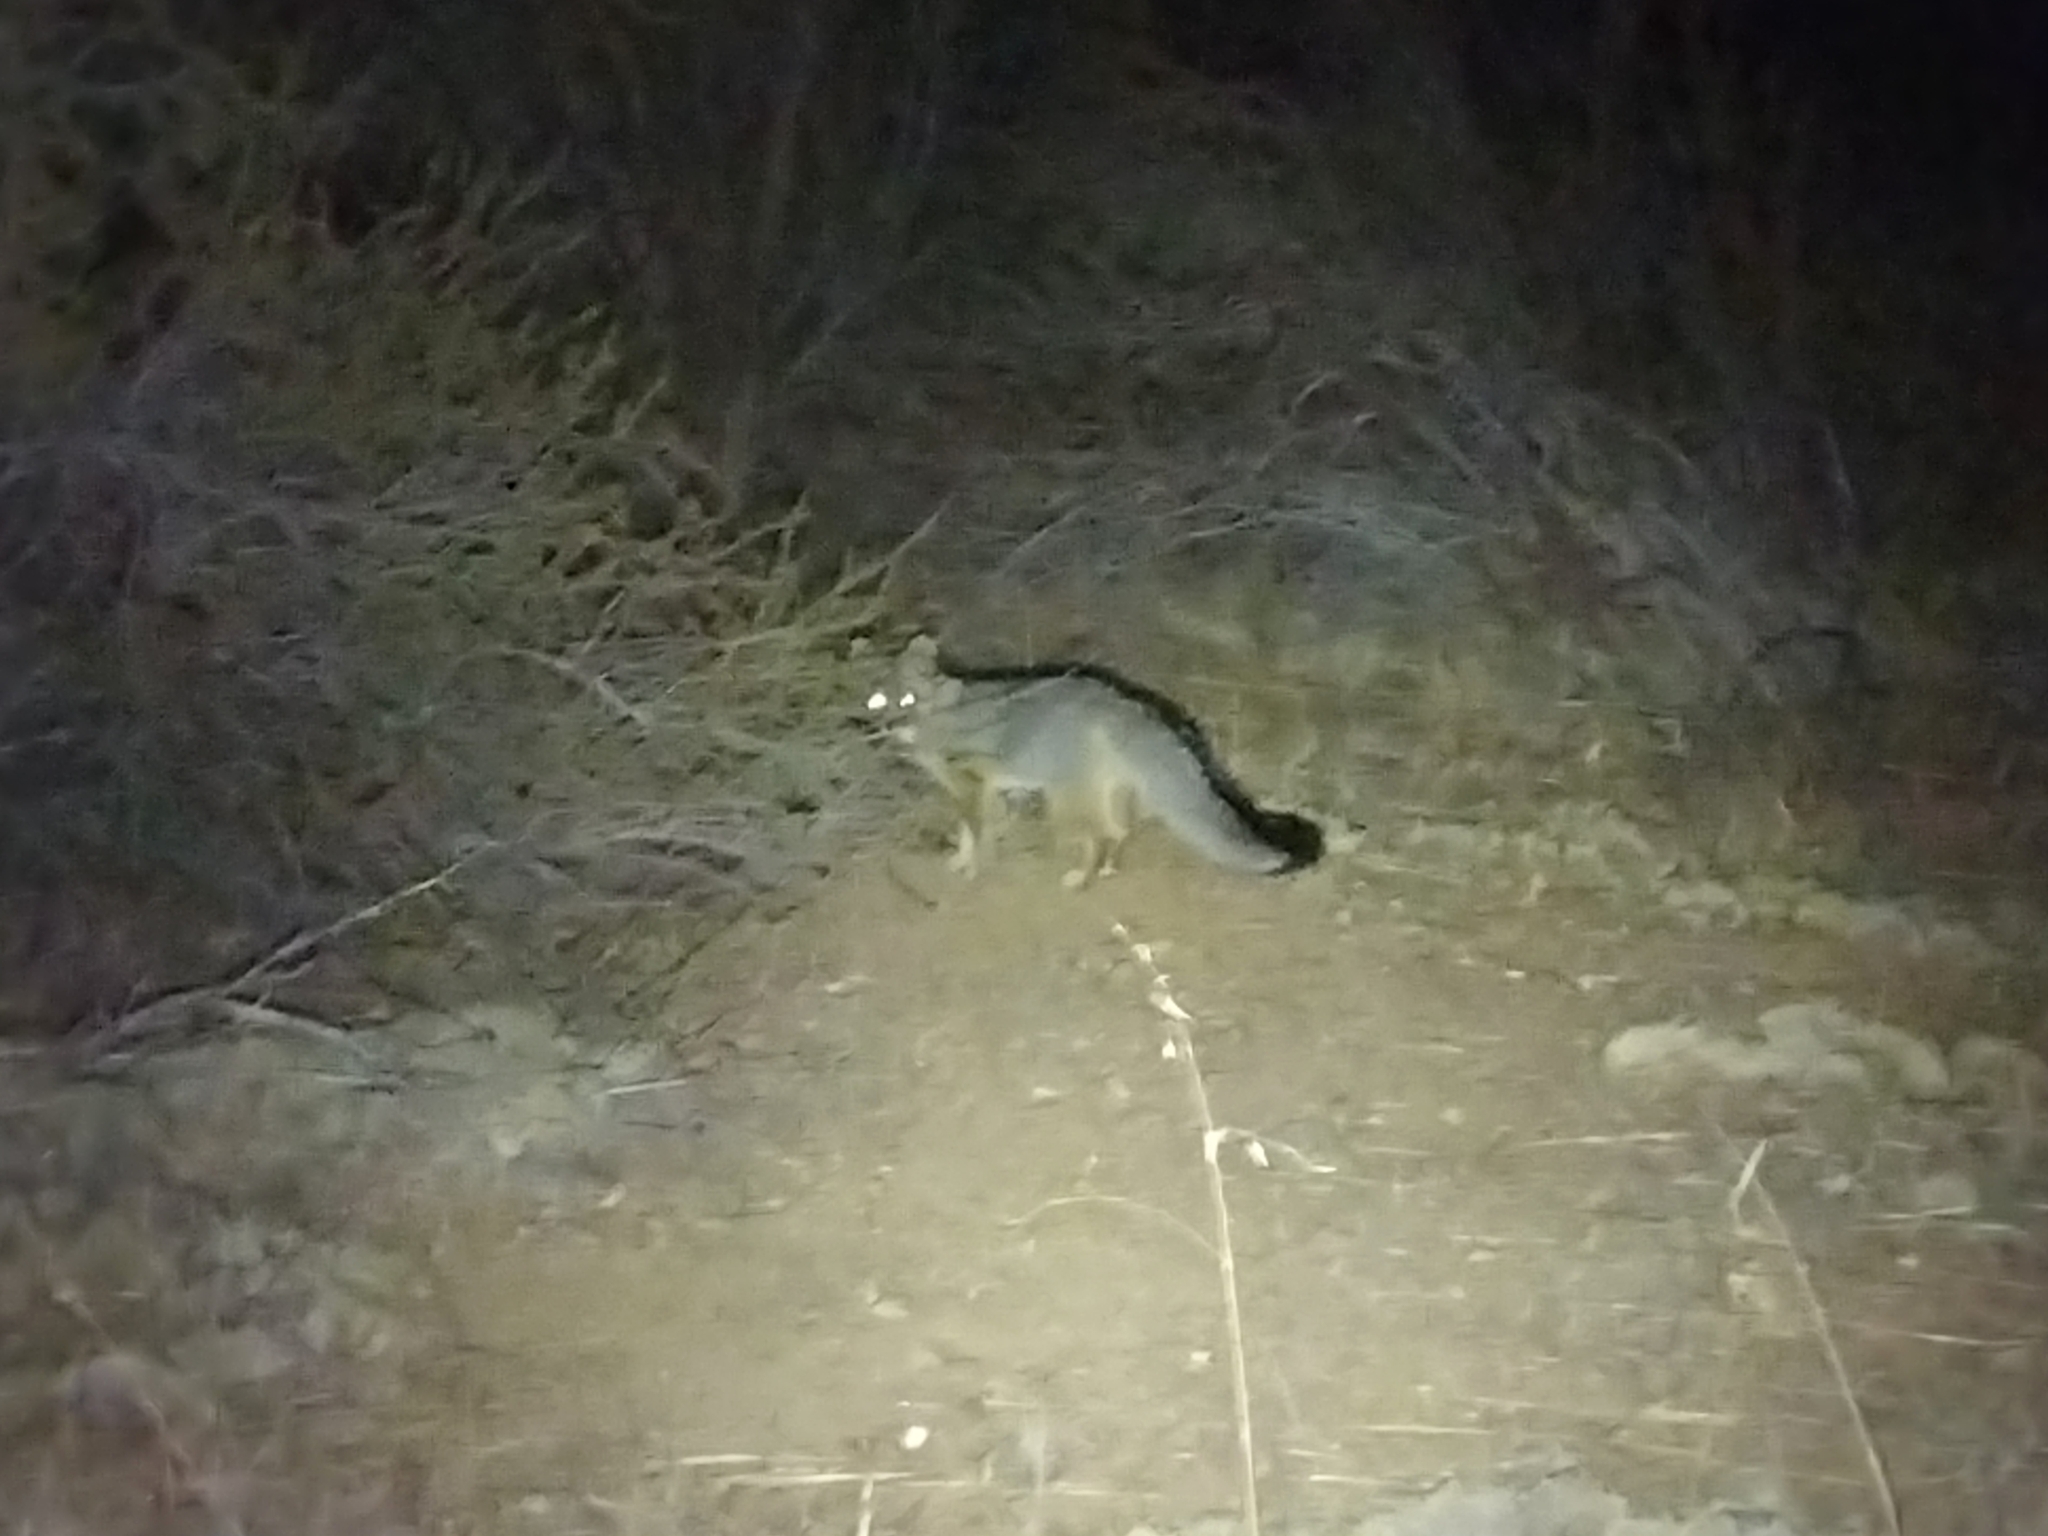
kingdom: Animalia
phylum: Chordata
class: Mammalia
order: Carnivora
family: Canidae
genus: Urocyon
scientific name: Urocyon cinereoargenteus
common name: Gray fox
